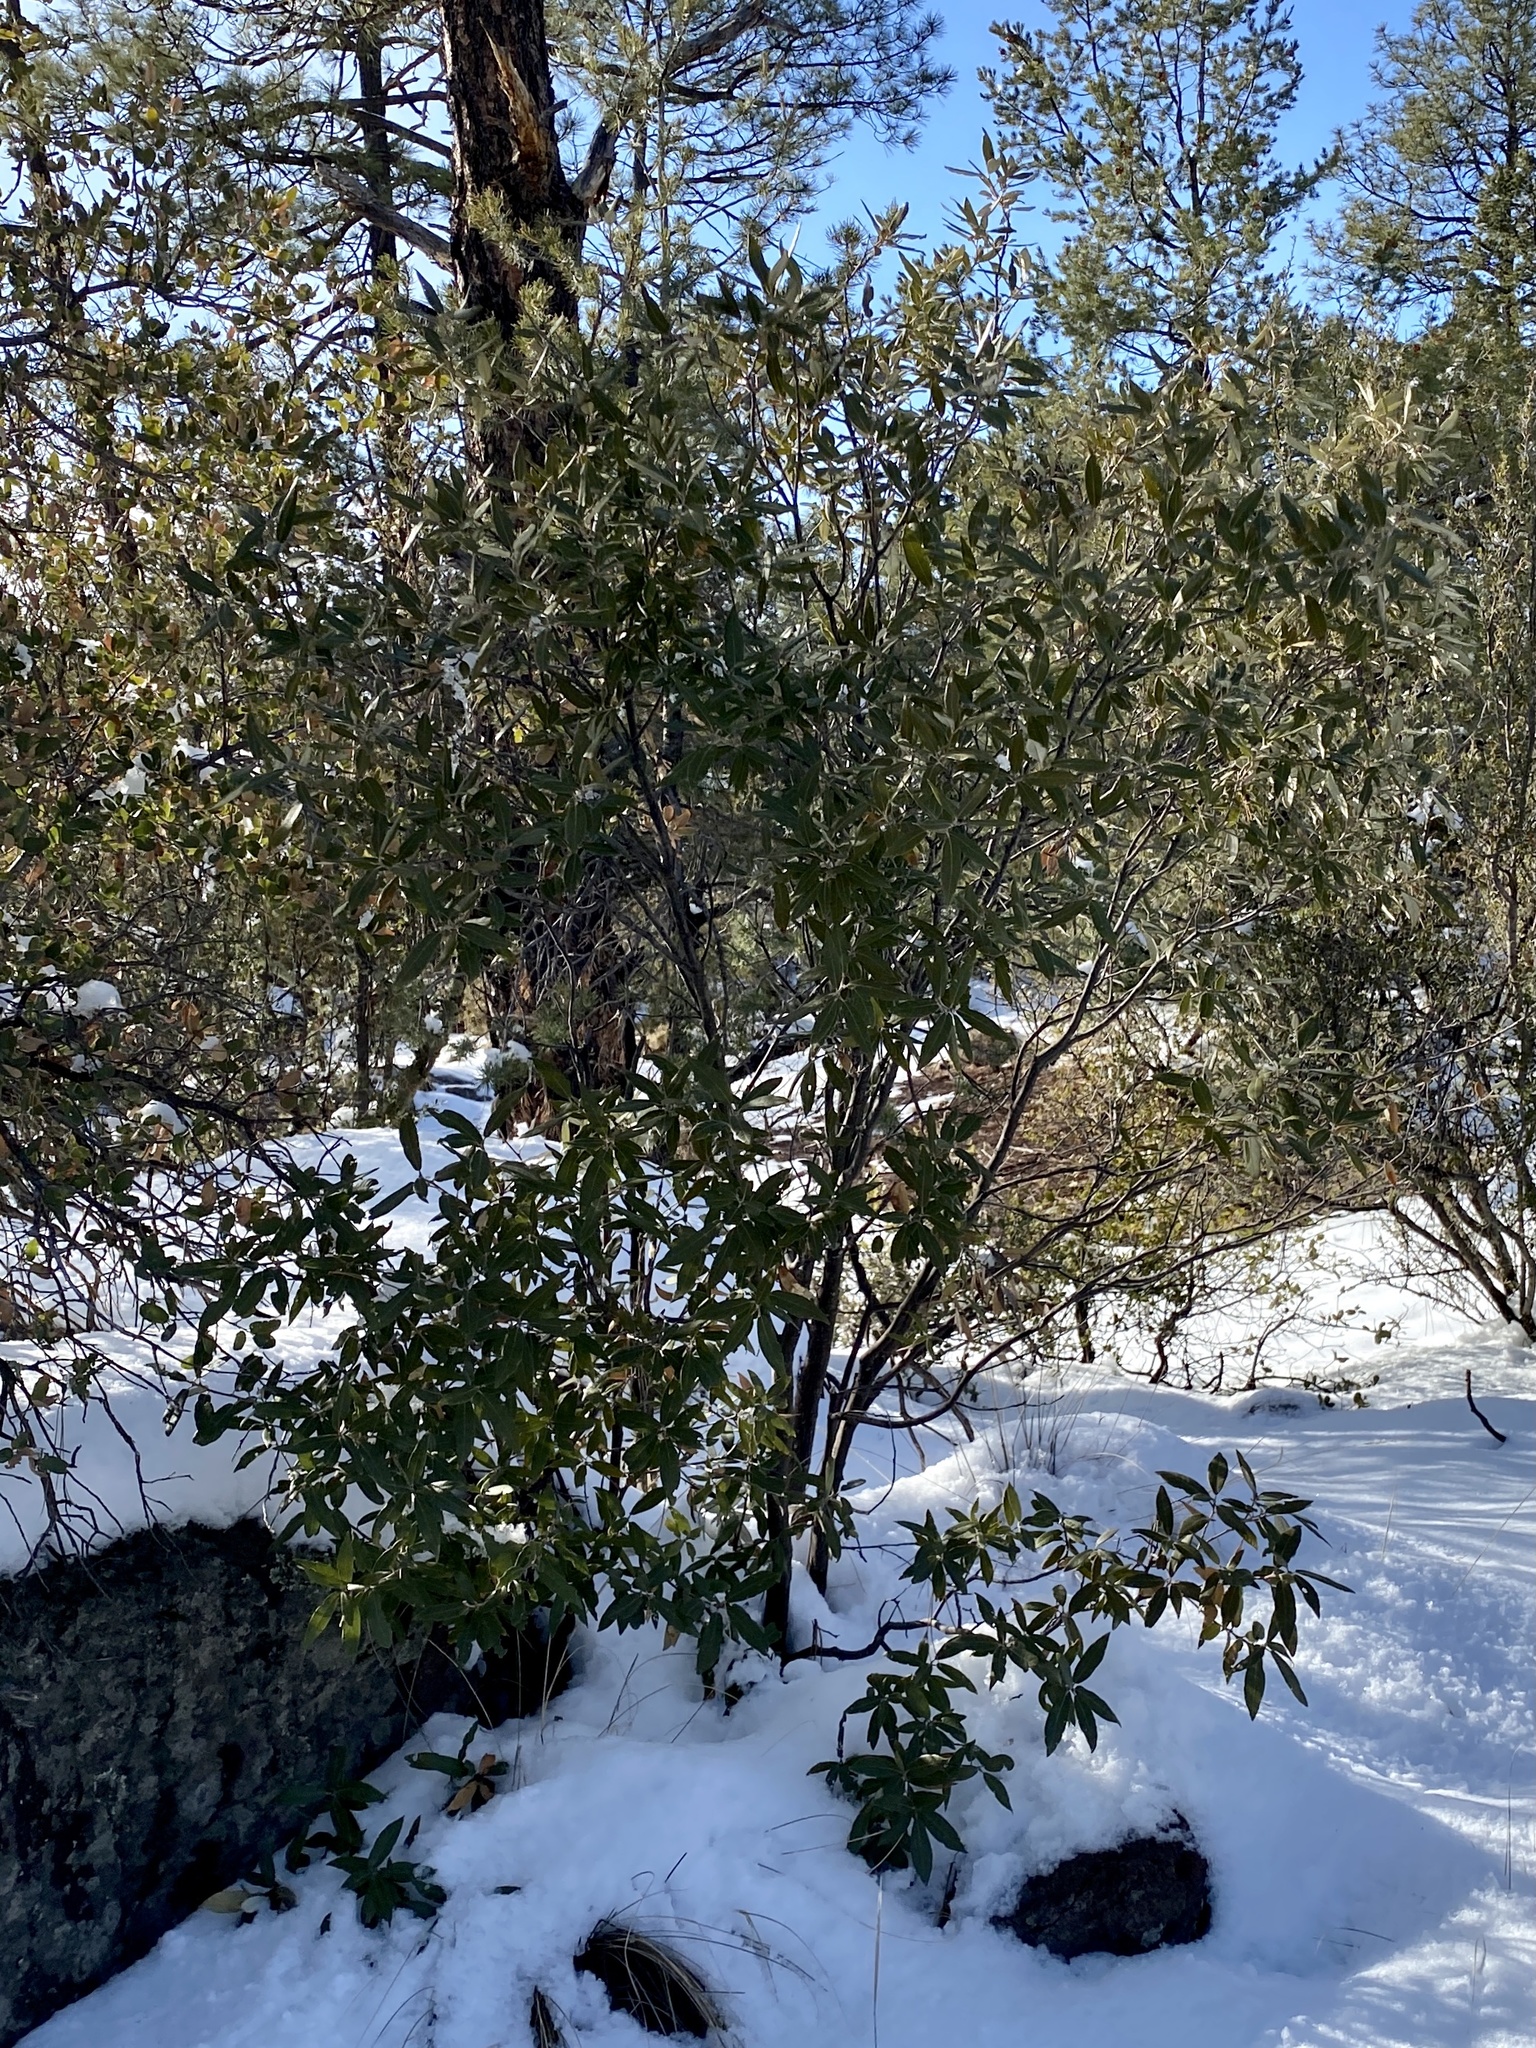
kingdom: Plantae
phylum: Tracheophyta
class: Magnoliopsida
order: Fagales
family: Fagaceae
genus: Quercus
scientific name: Quercus hypoleucoides
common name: Silverleaf oak
